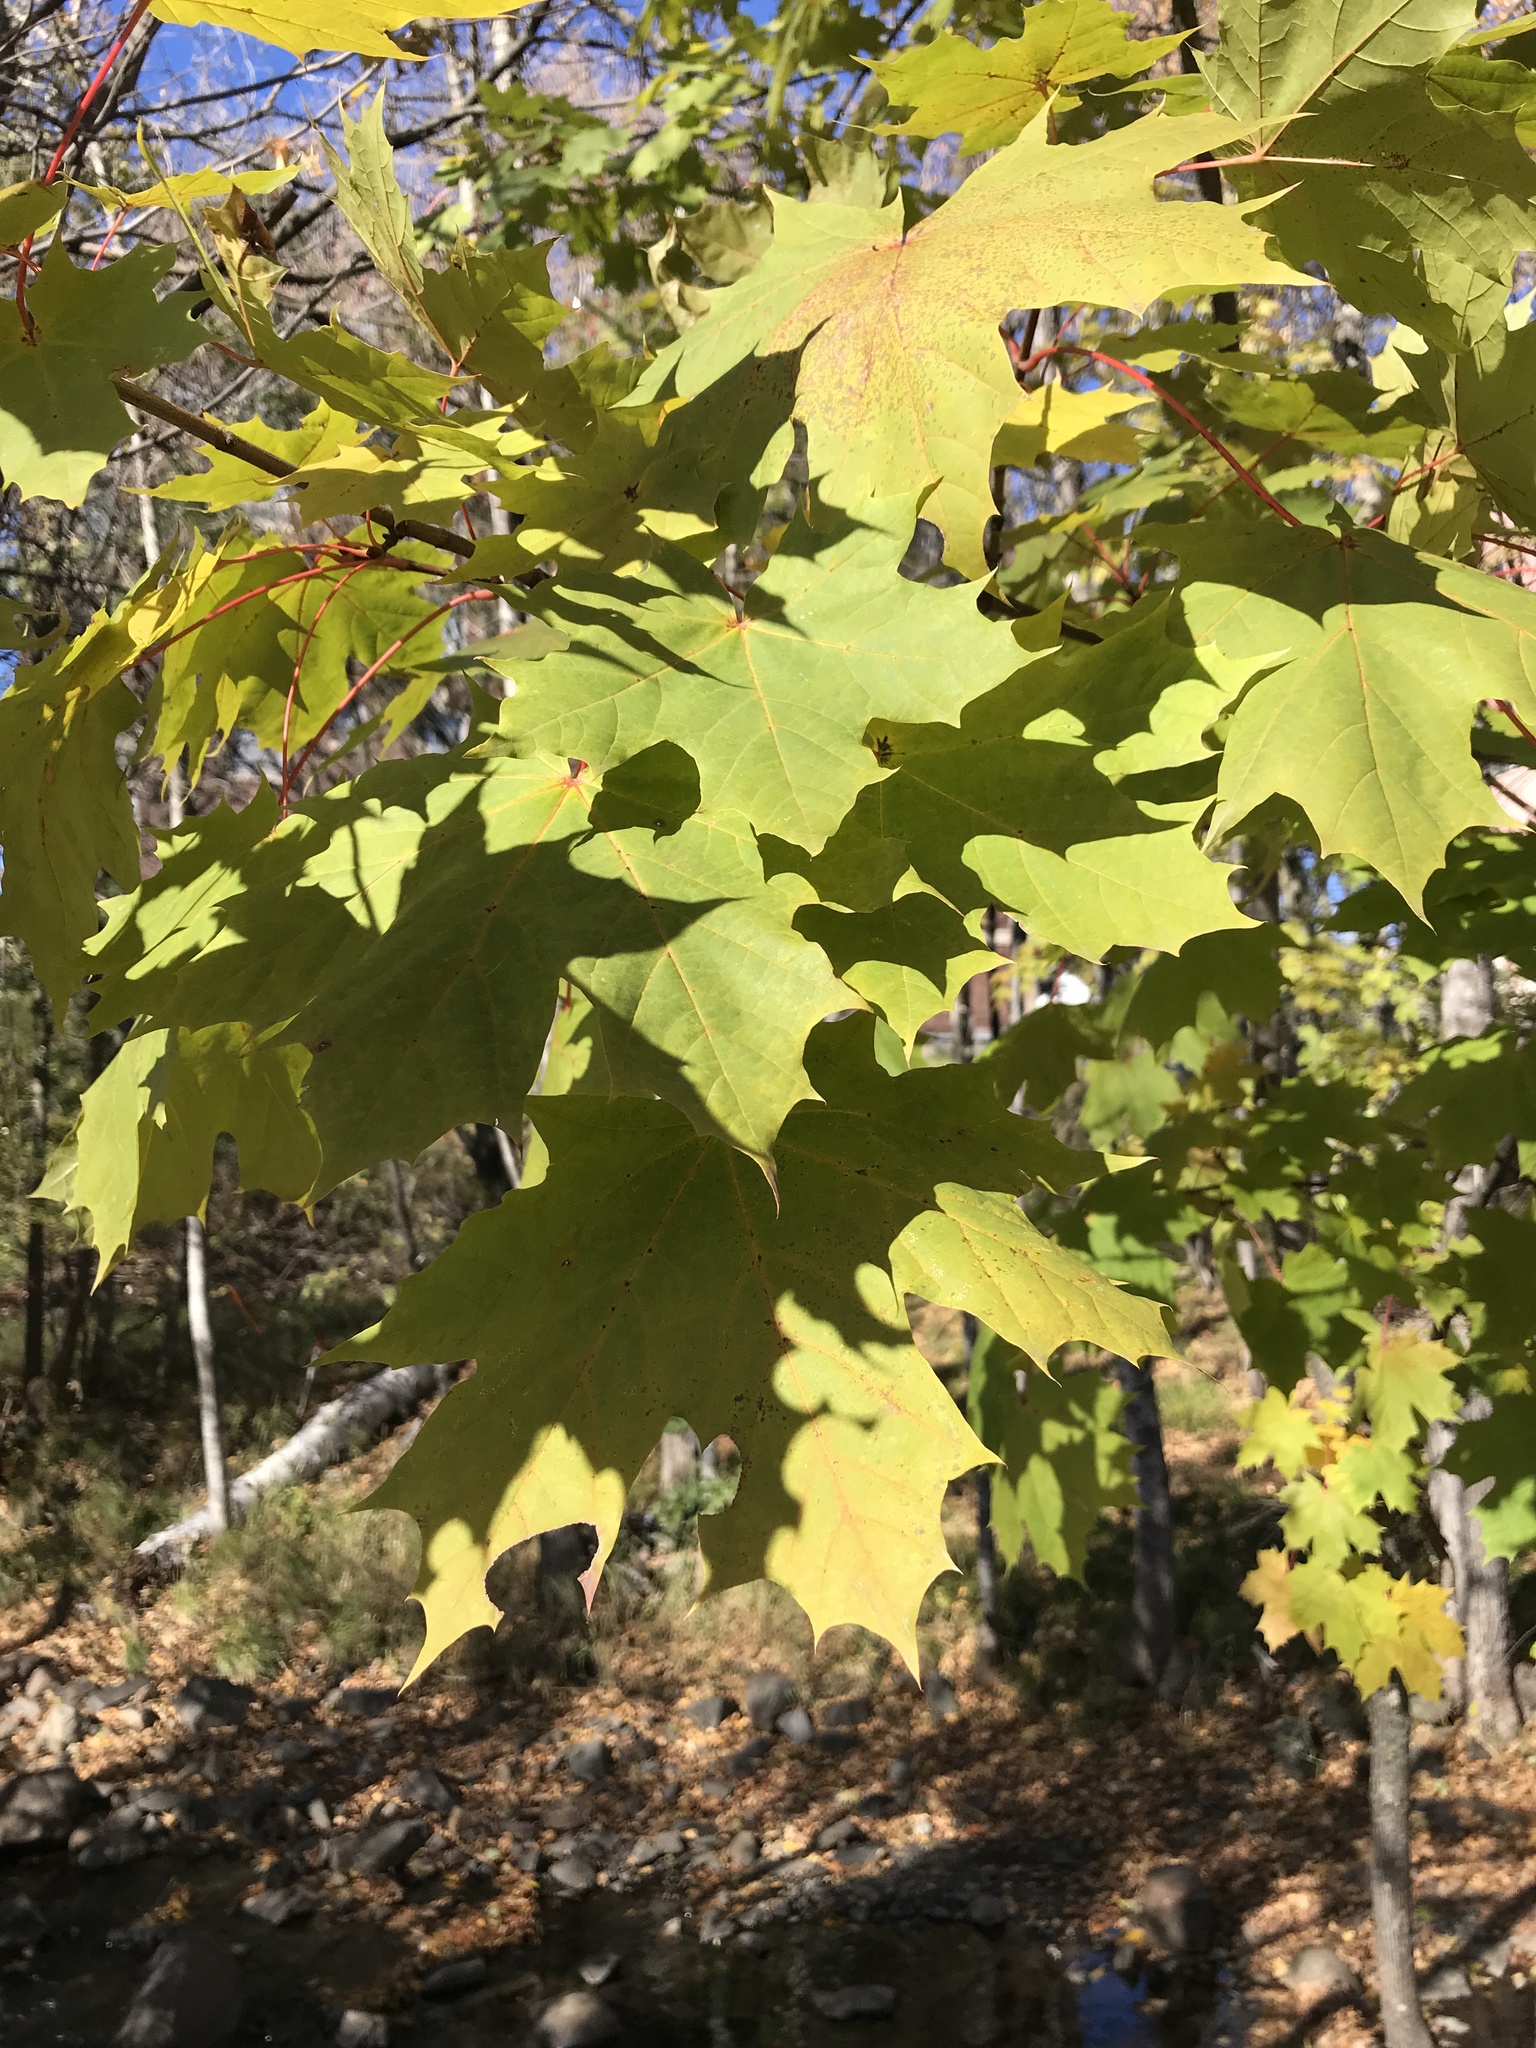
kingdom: Plantae
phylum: Tracheophyta
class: Magnoliopsida
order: Sapindales
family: Sapindaceae
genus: Acer
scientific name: Acer platanoides
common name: Norway maple
